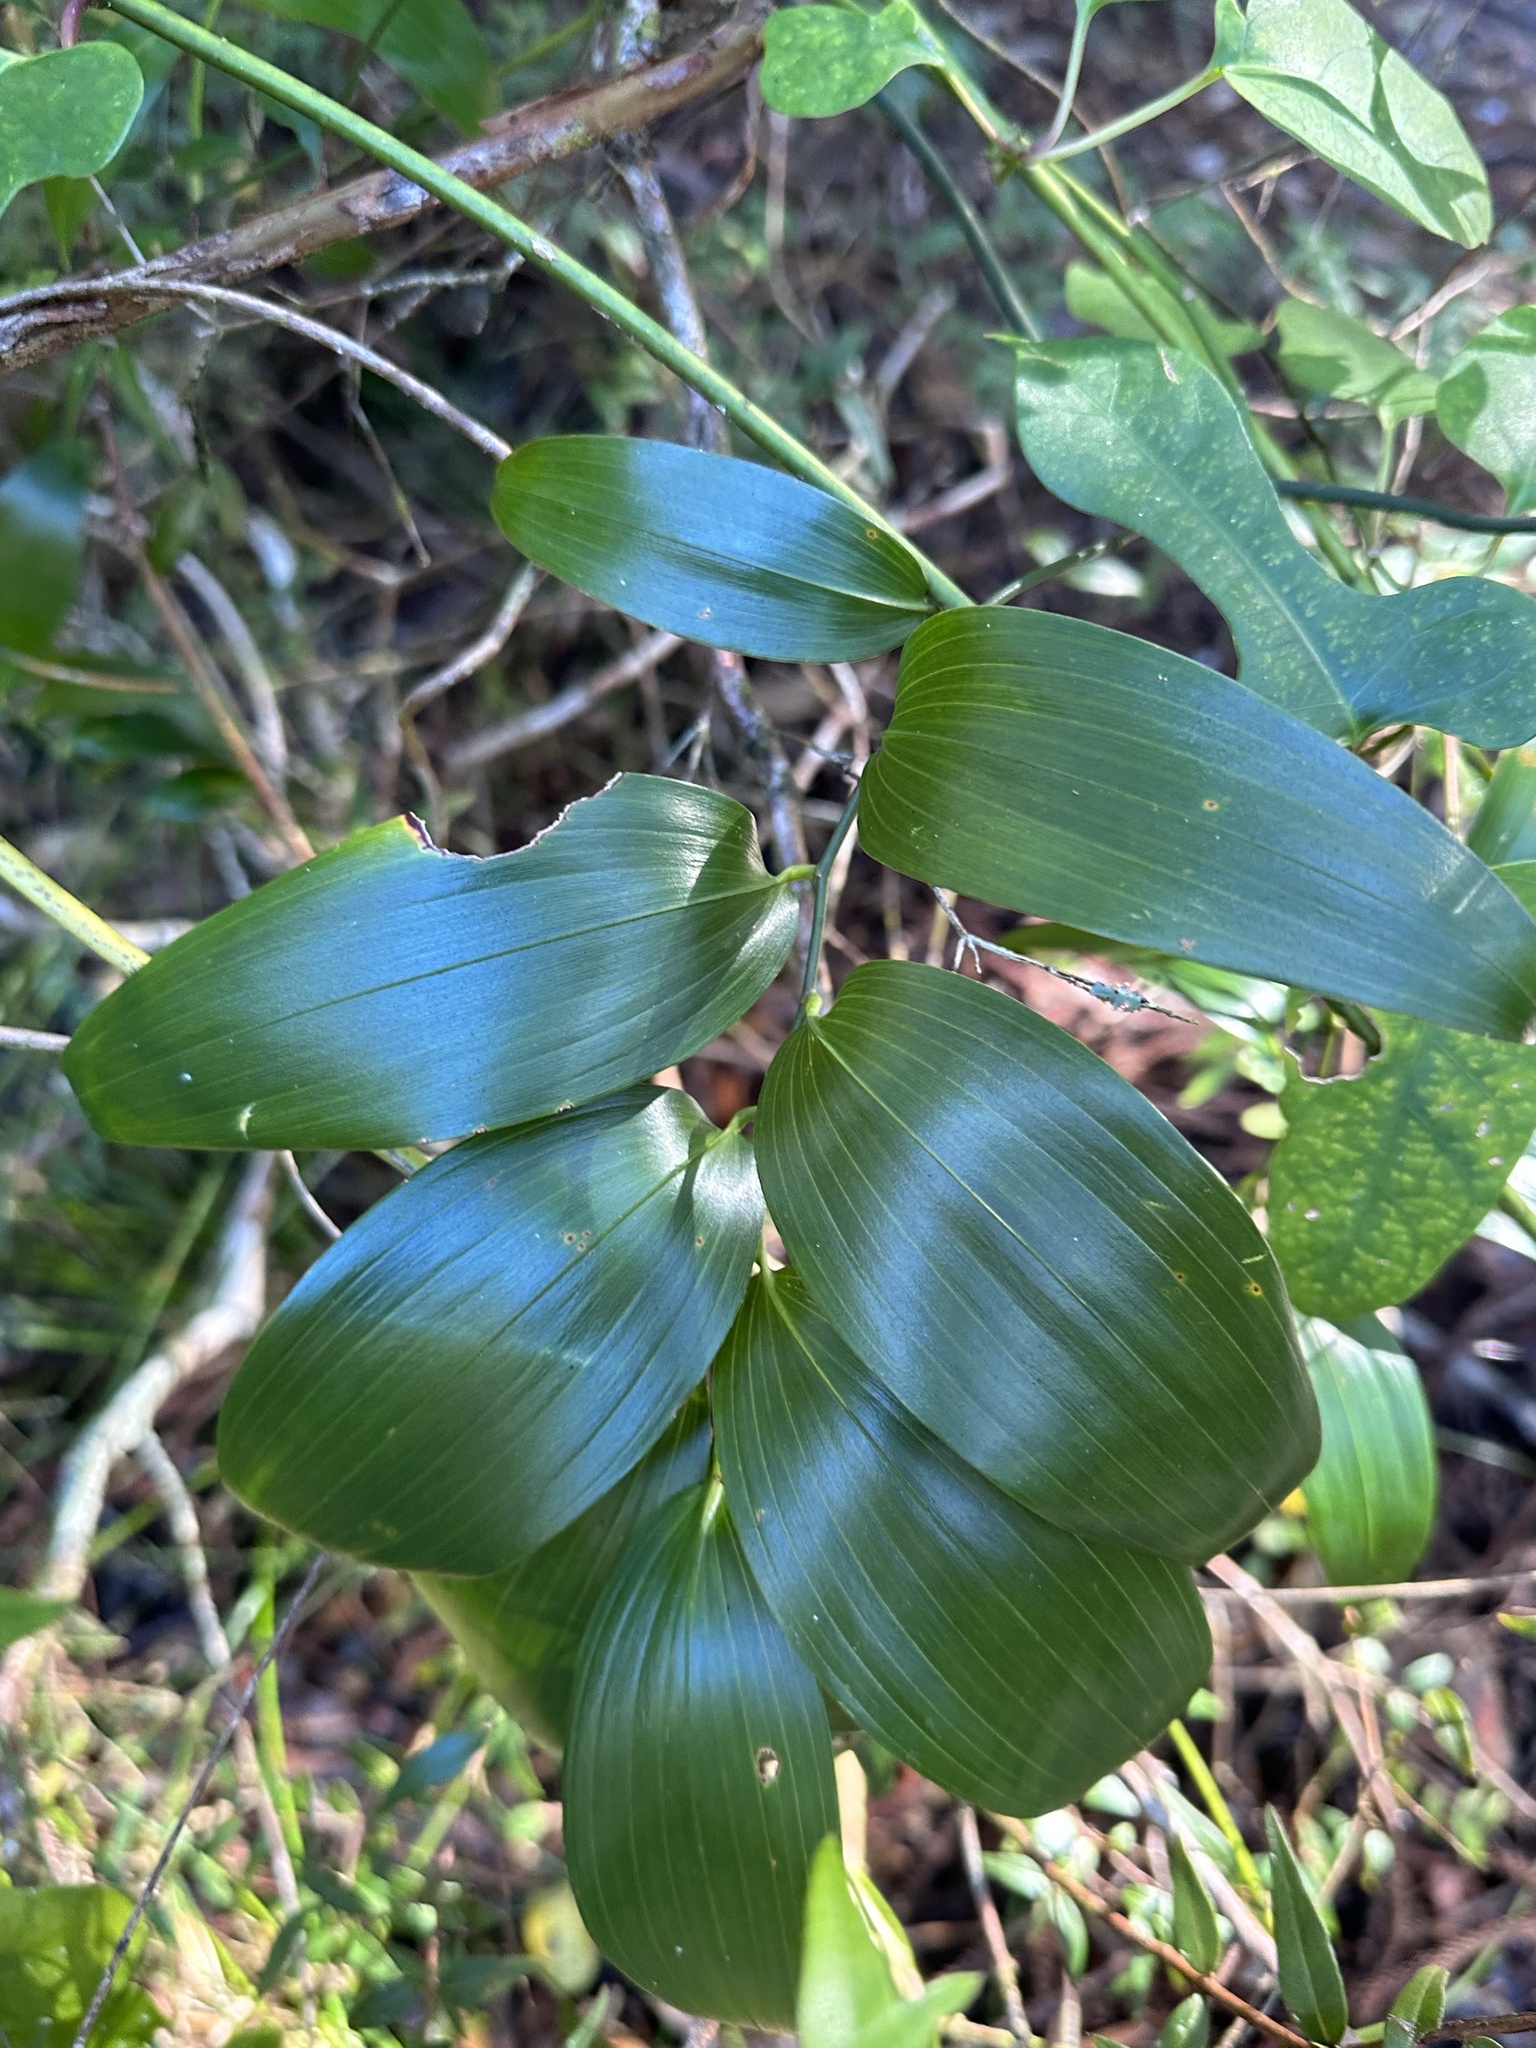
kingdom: Plantae
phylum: Tracheophyta
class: Liliopsida
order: Asparagales
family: Asphodelaceae
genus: Geitonoplesium
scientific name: Geitonoplesium cymosum
